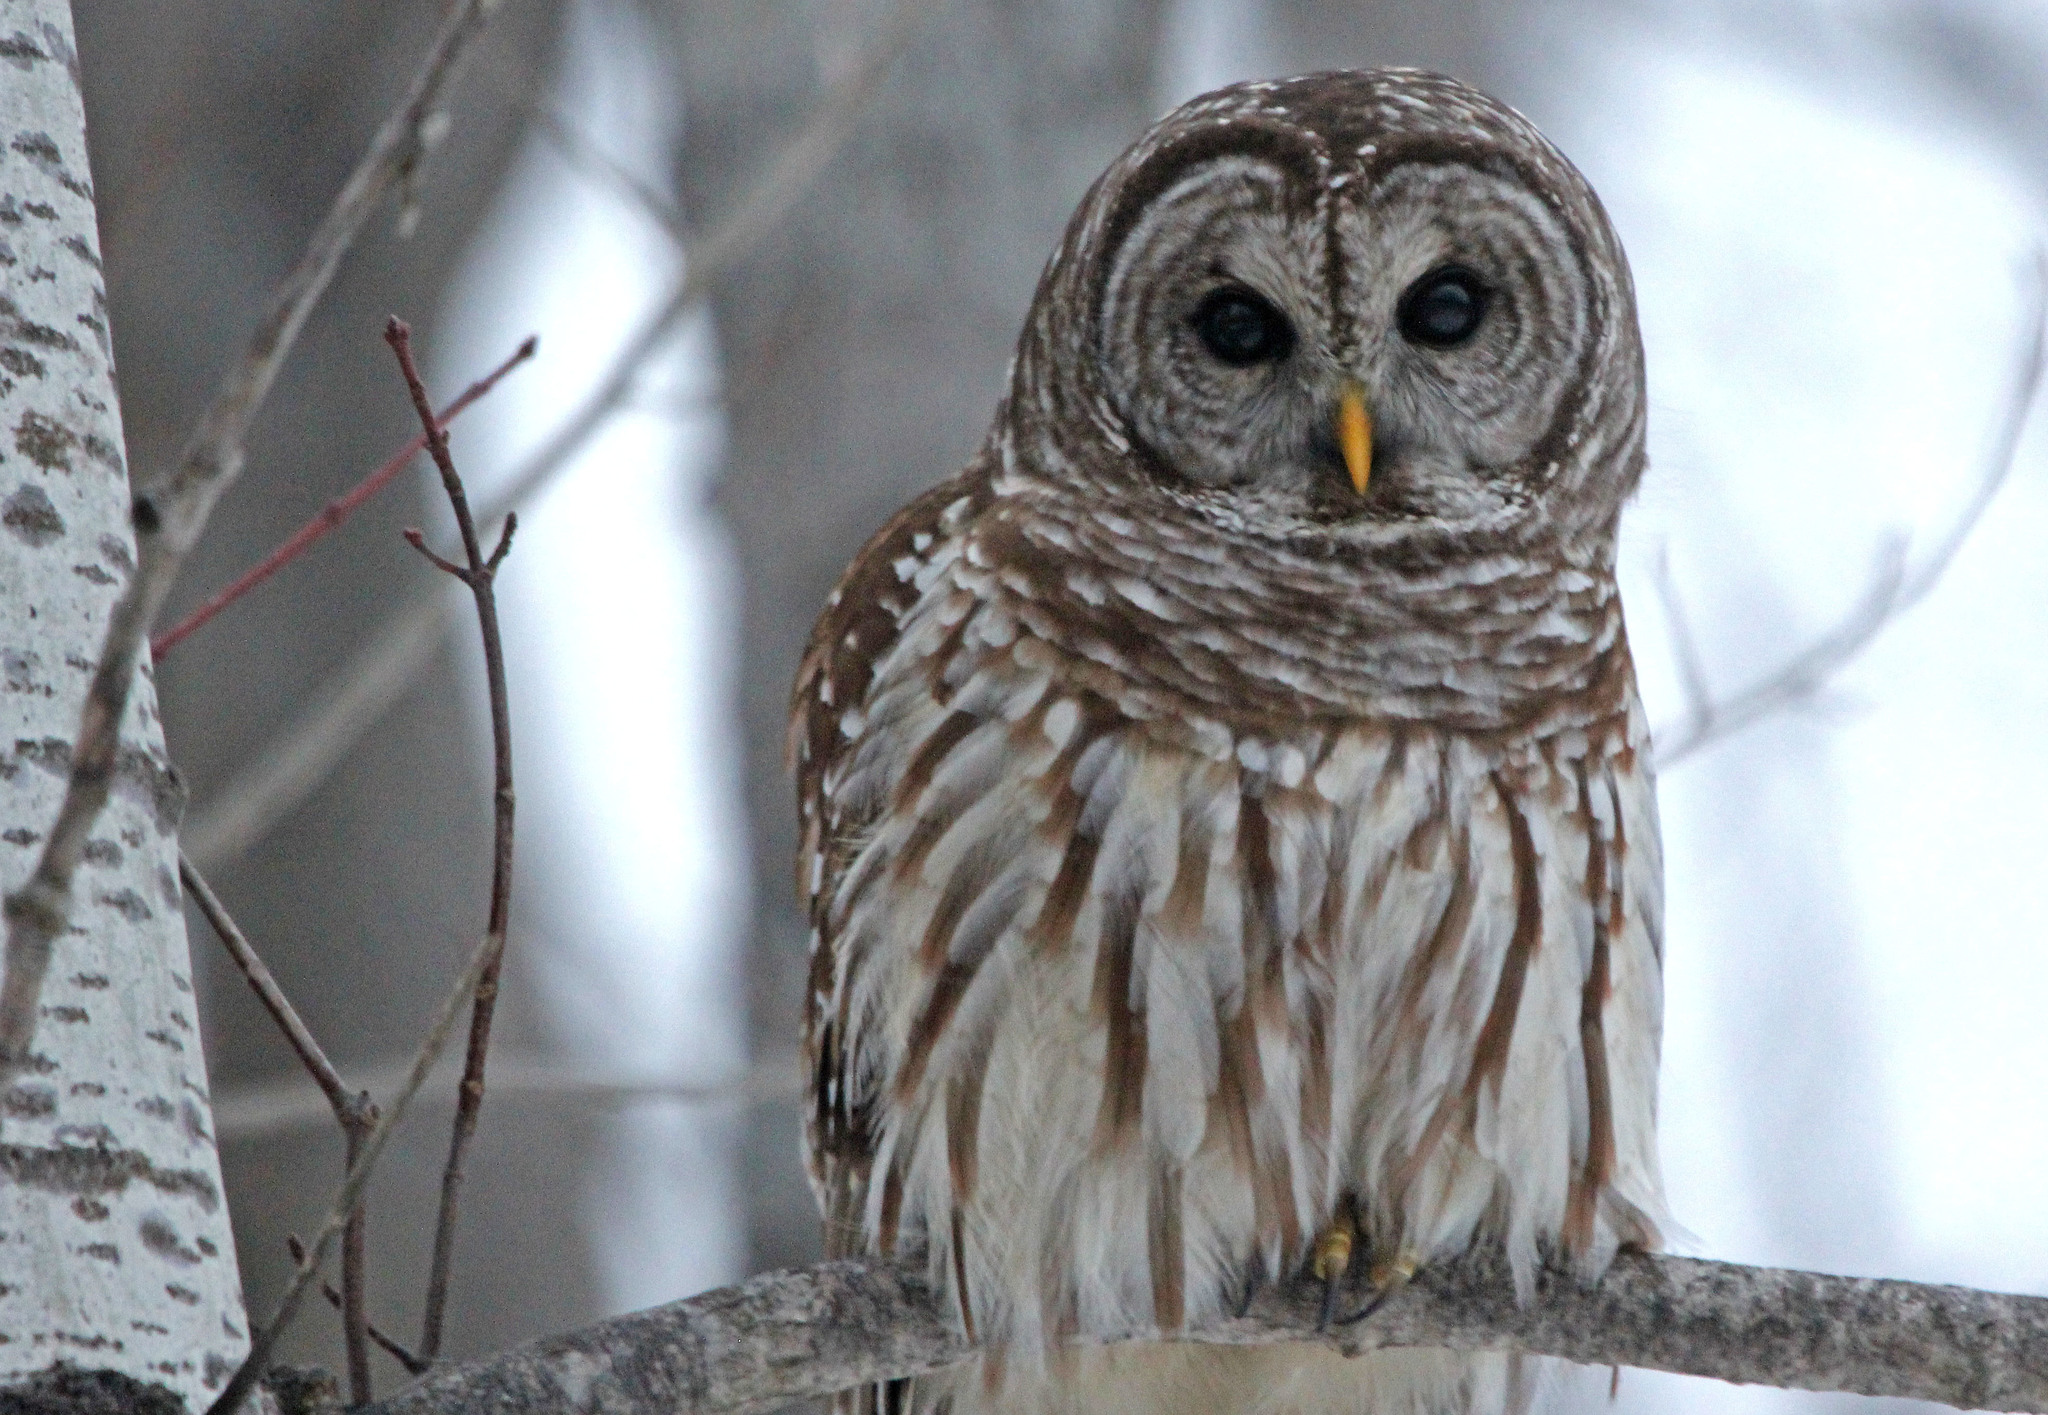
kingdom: Animalia
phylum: Chordata
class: Aves
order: Strigiformes
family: Strigidae
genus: Strix
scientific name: Strix varia
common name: Barred owl
